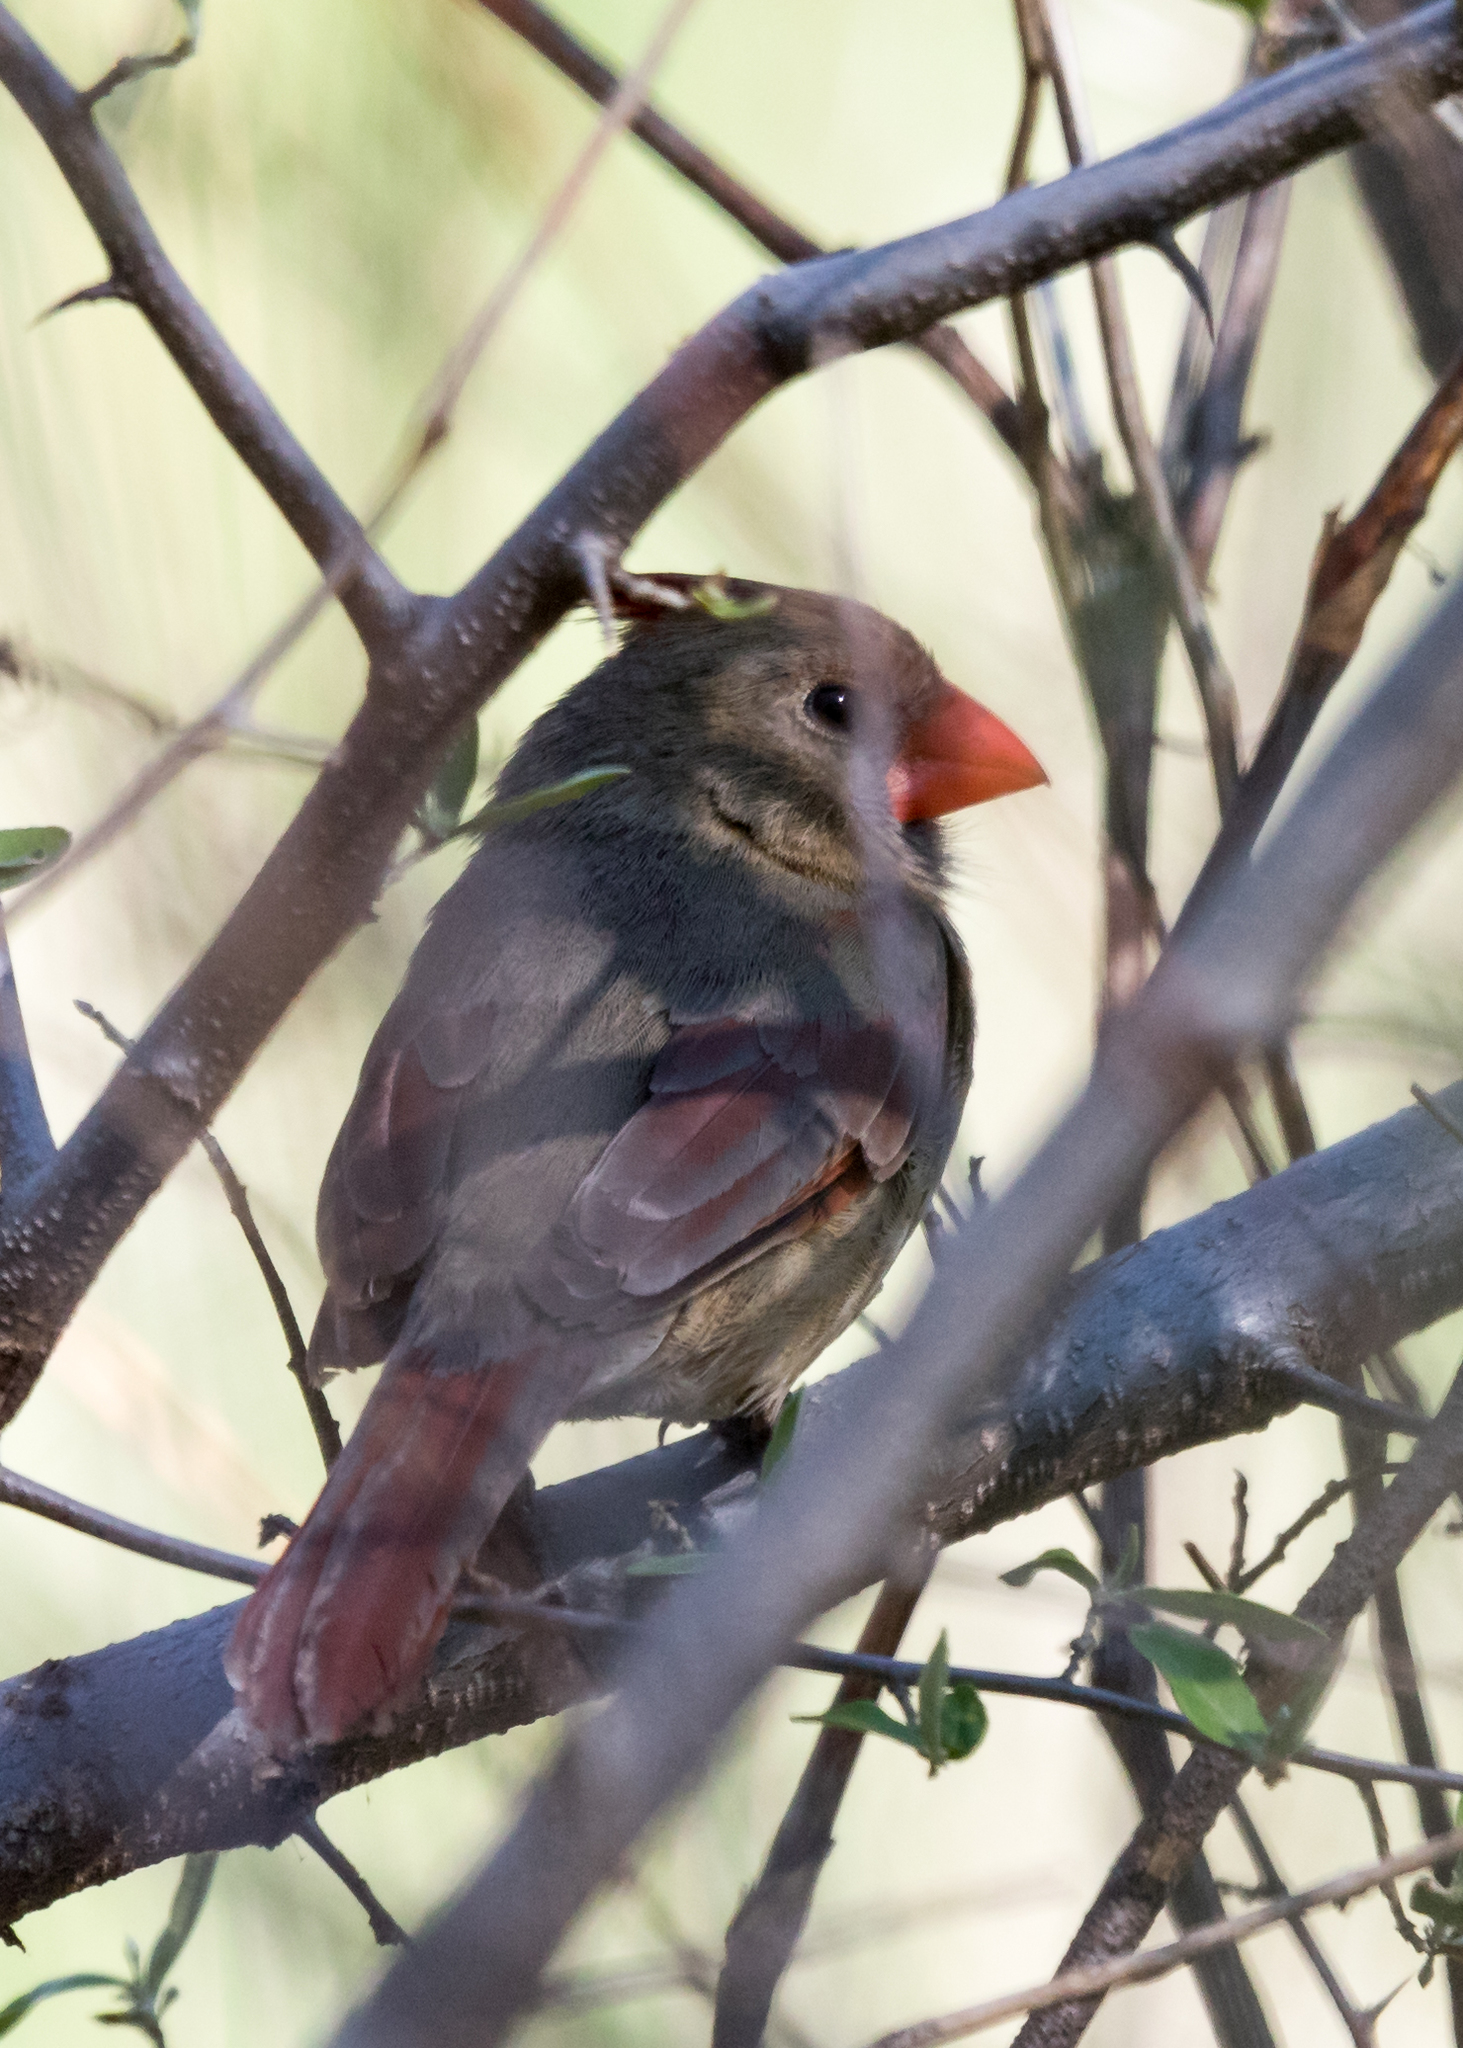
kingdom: Animalia
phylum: Chordata
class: Aves
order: Passeriformes
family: Cardinalidae
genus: Cardinalis
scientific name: Cardinalis cardinalis
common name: Northern cardinal
